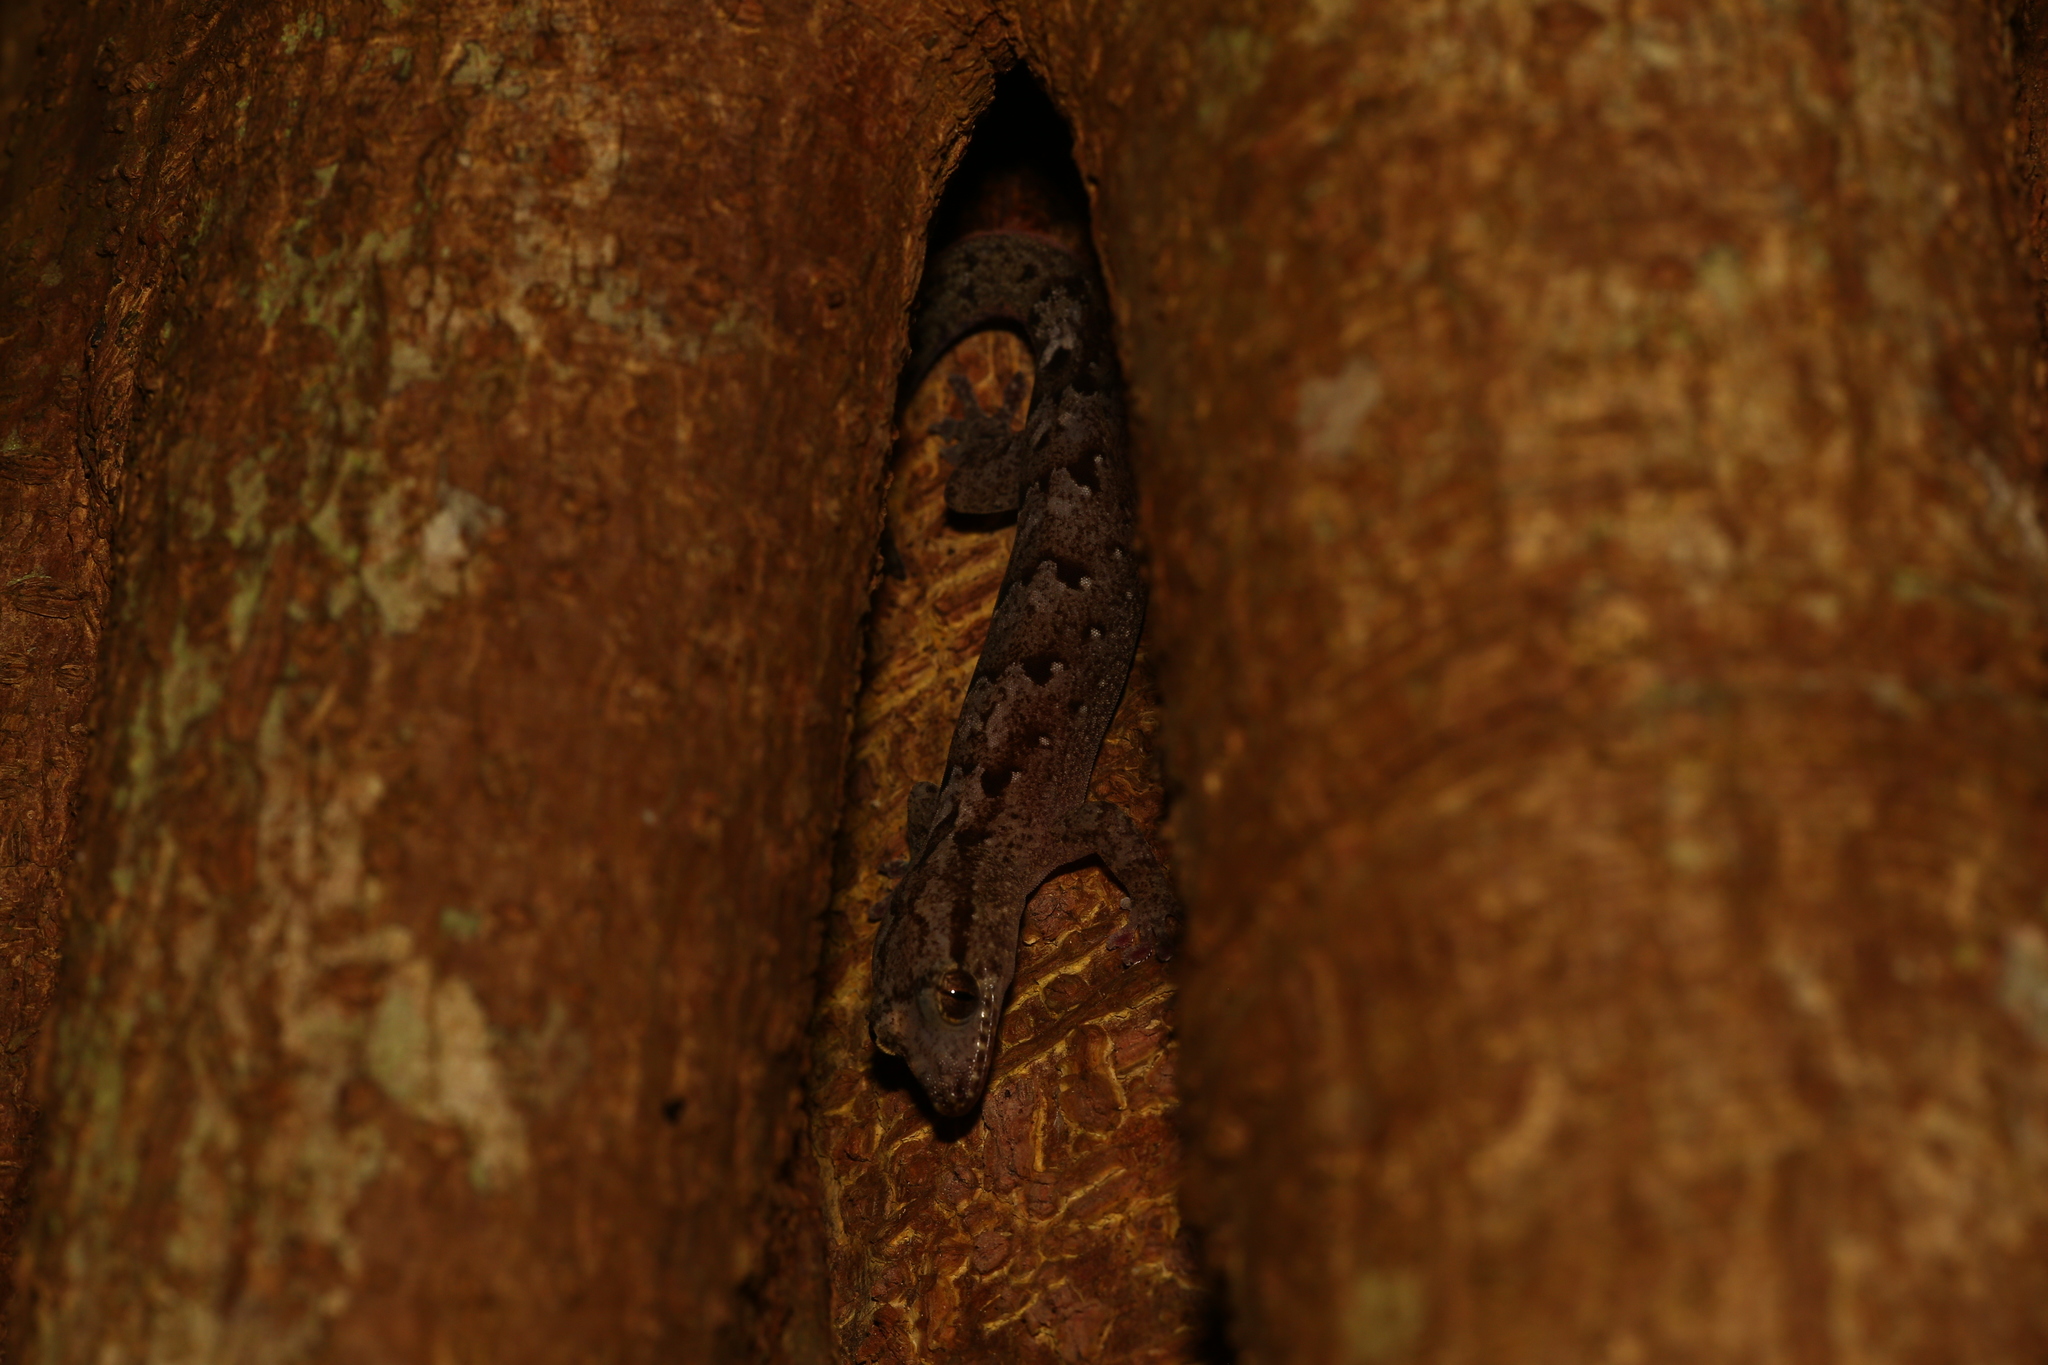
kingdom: Animalia
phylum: Chordata
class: Squamata
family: Diplodactylidae
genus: Bavayia
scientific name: Bavayia sauvagii
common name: Sauvage's new caledonian gecko
